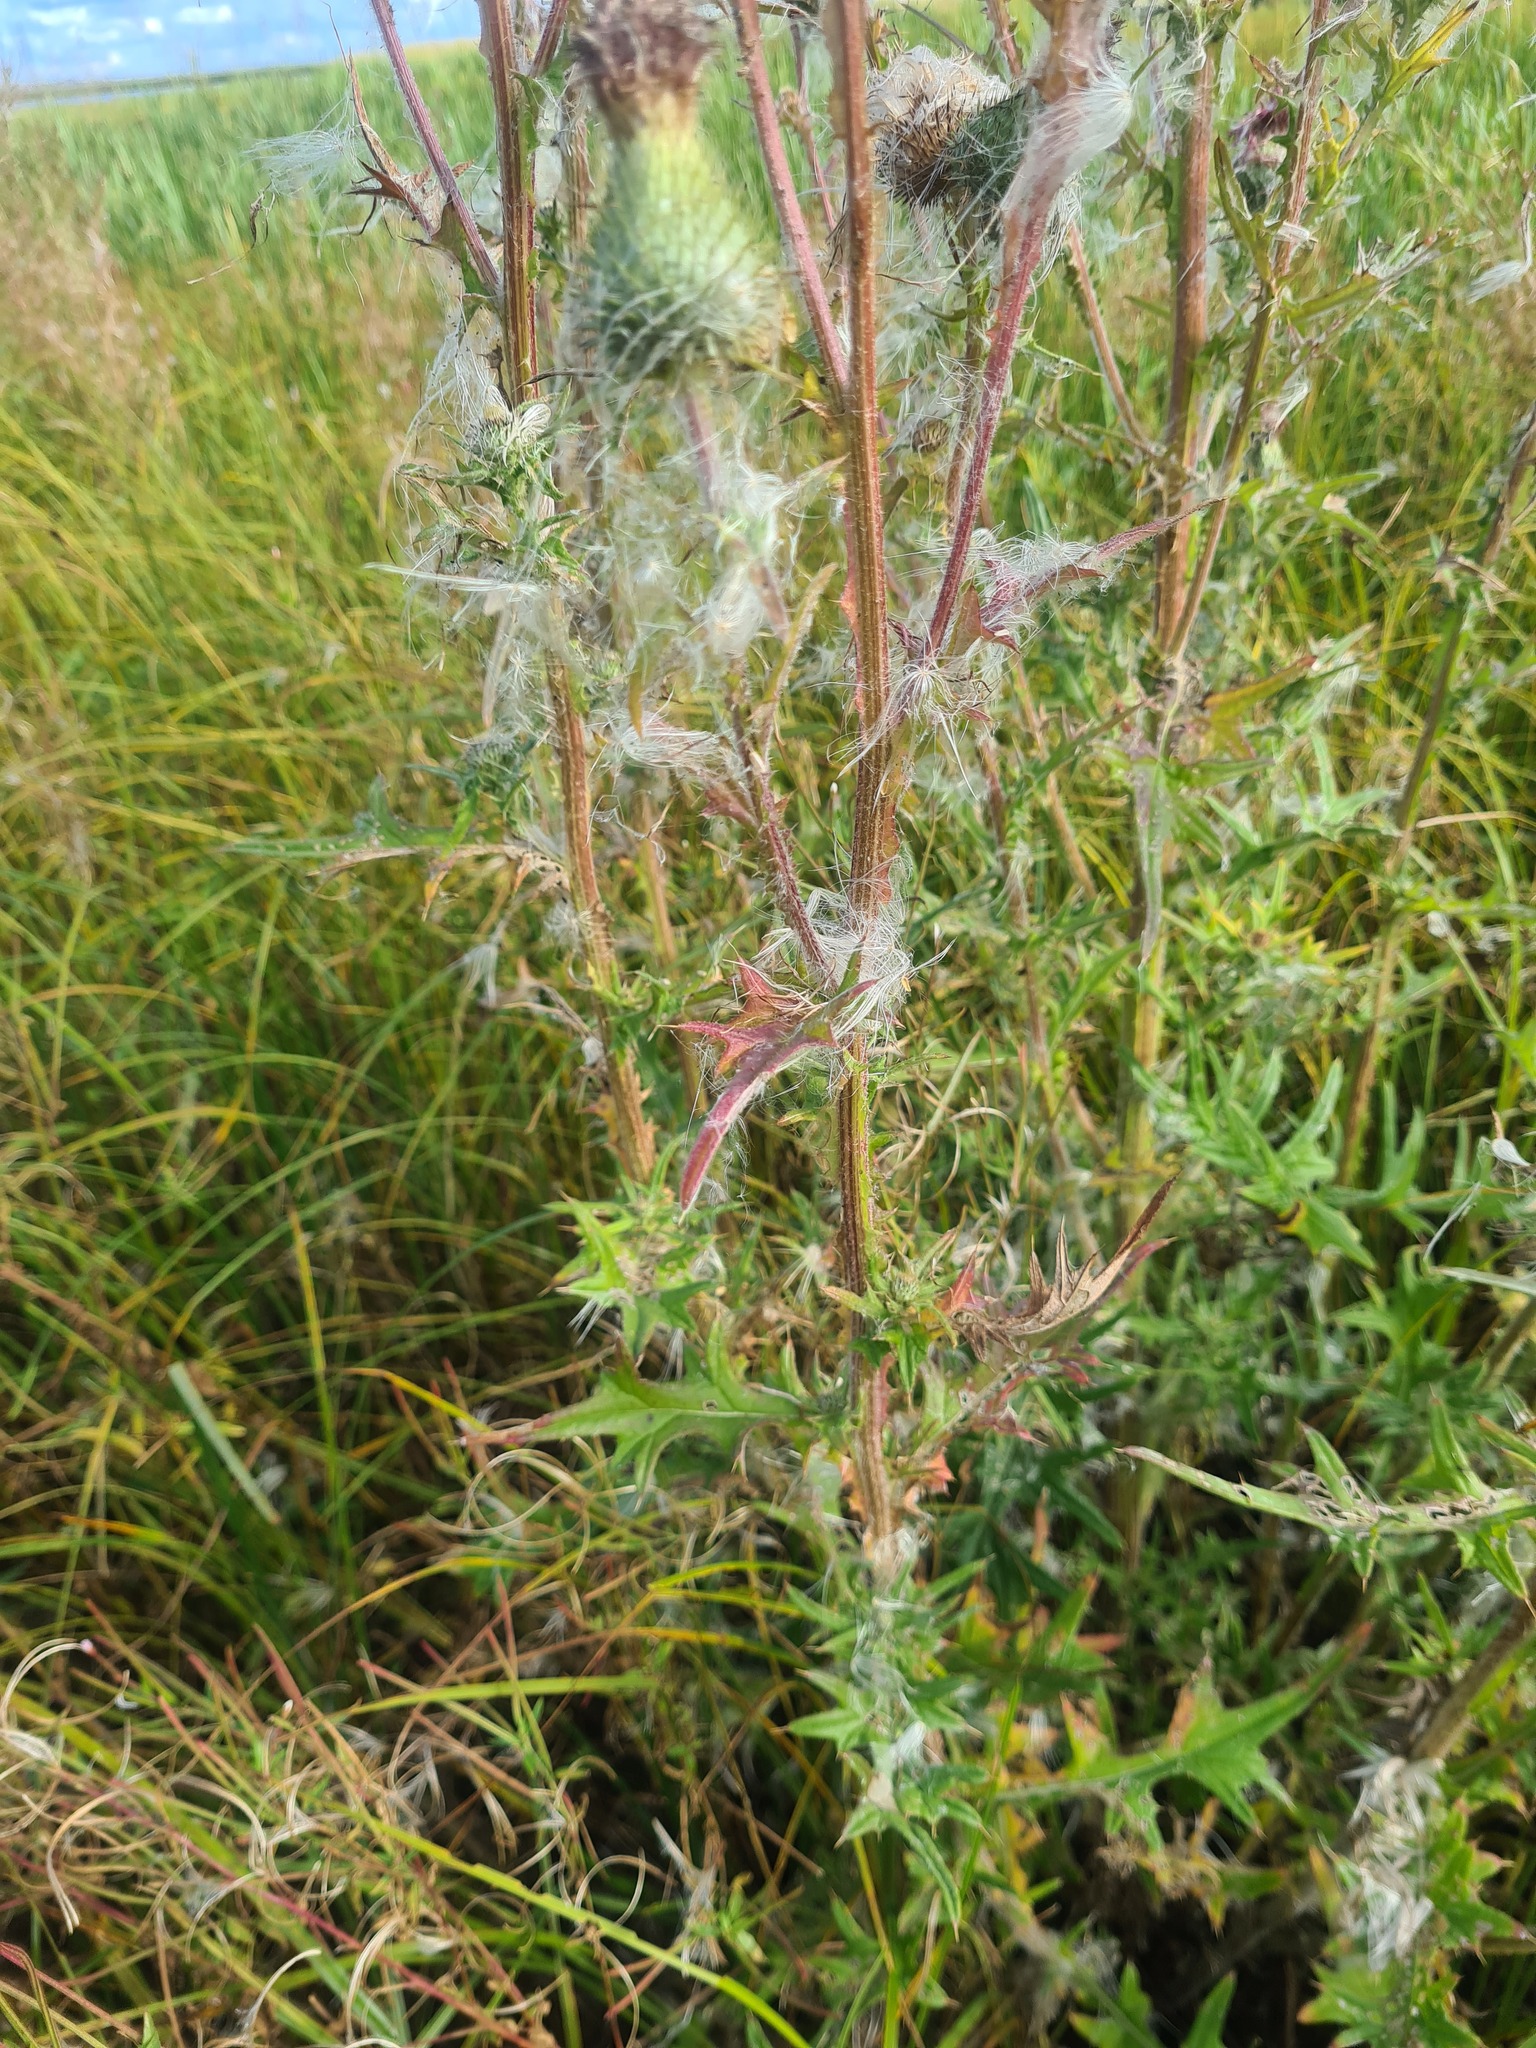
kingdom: Plantae
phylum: Tracheophyta
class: Magnoliopsida
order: Asterales
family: Asteraceae
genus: Cirsium
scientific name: Cirsium vulgare
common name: Bull thistle
